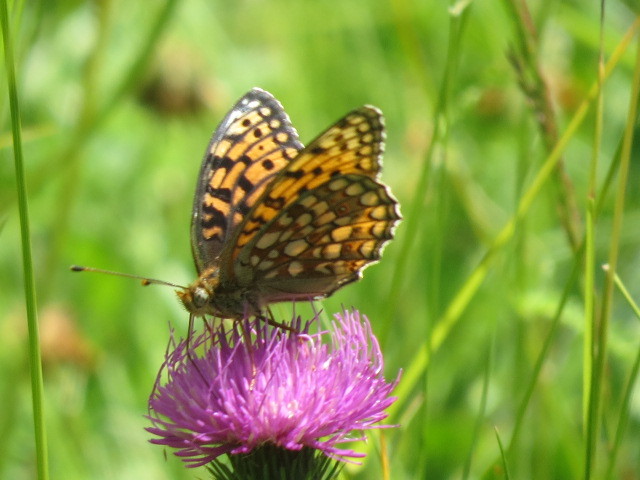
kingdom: Animalia
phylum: Arthropoda
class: Insecta
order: Lepidoptera
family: Nymphalidae
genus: Fabriciana
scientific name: Fabriciana niobe
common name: Niobe fritillary
